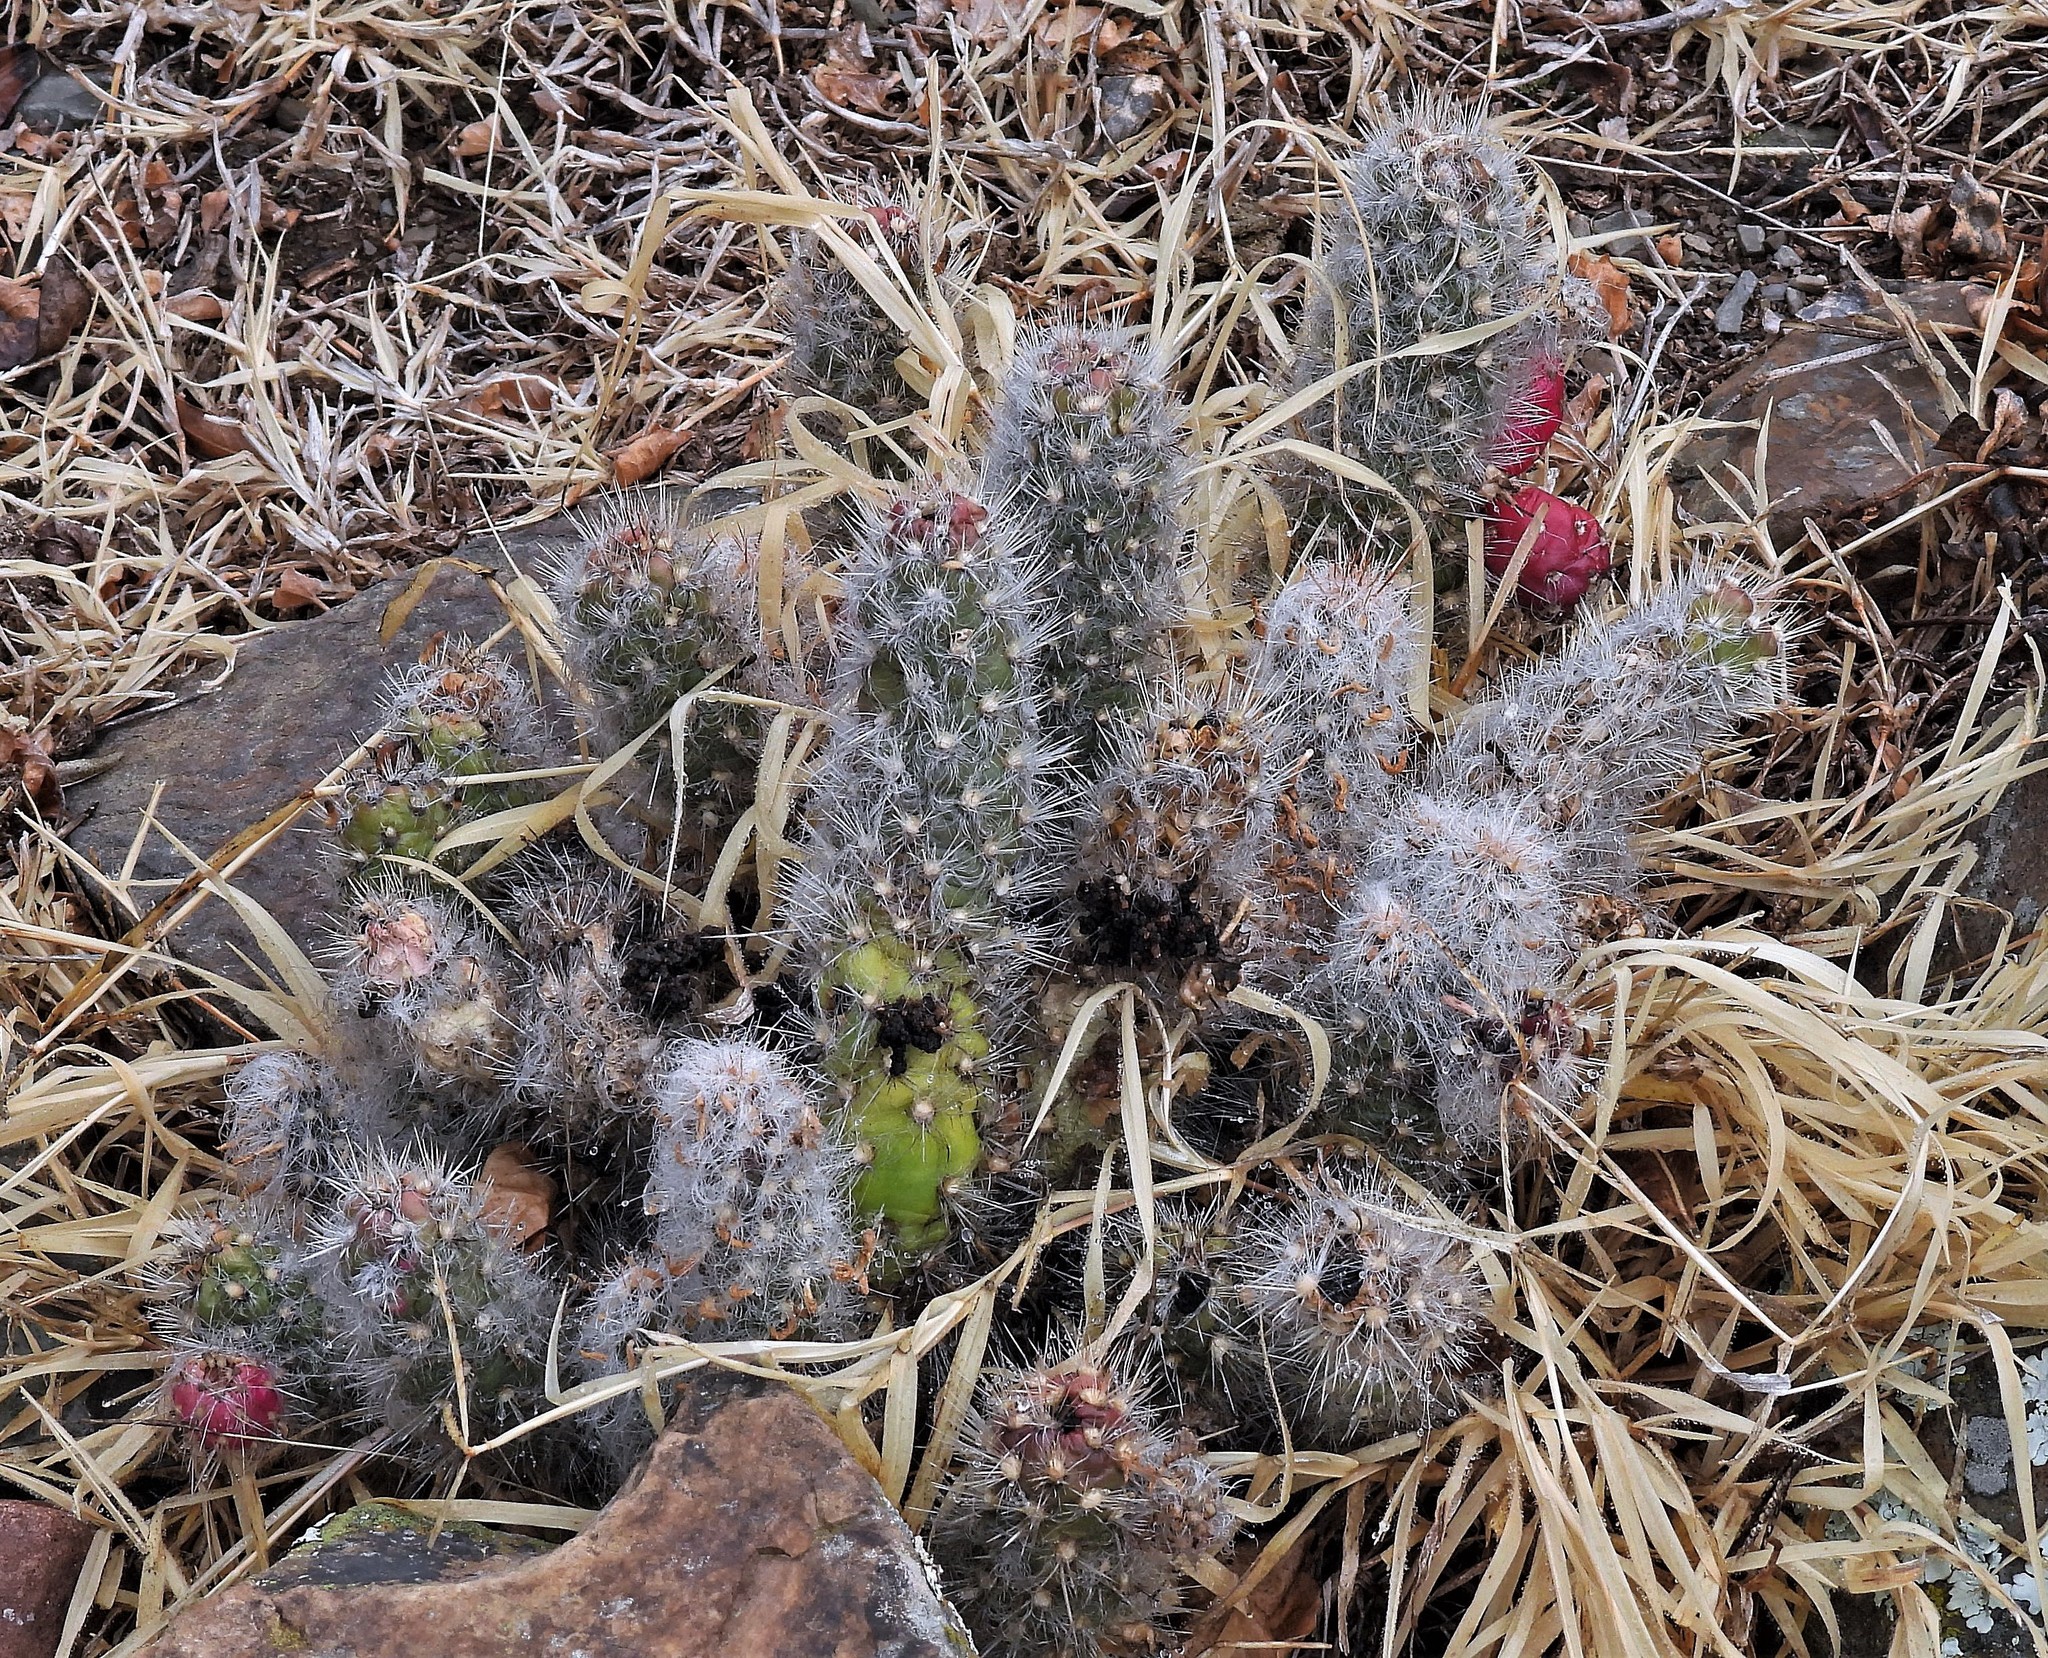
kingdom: Plantae
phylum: Tracheophyta
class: Magnoliopsida
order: Caryophyllales
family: Cactaceae
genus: Austrocylindropuntia
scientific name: Austrocylindropuntia shaferi
